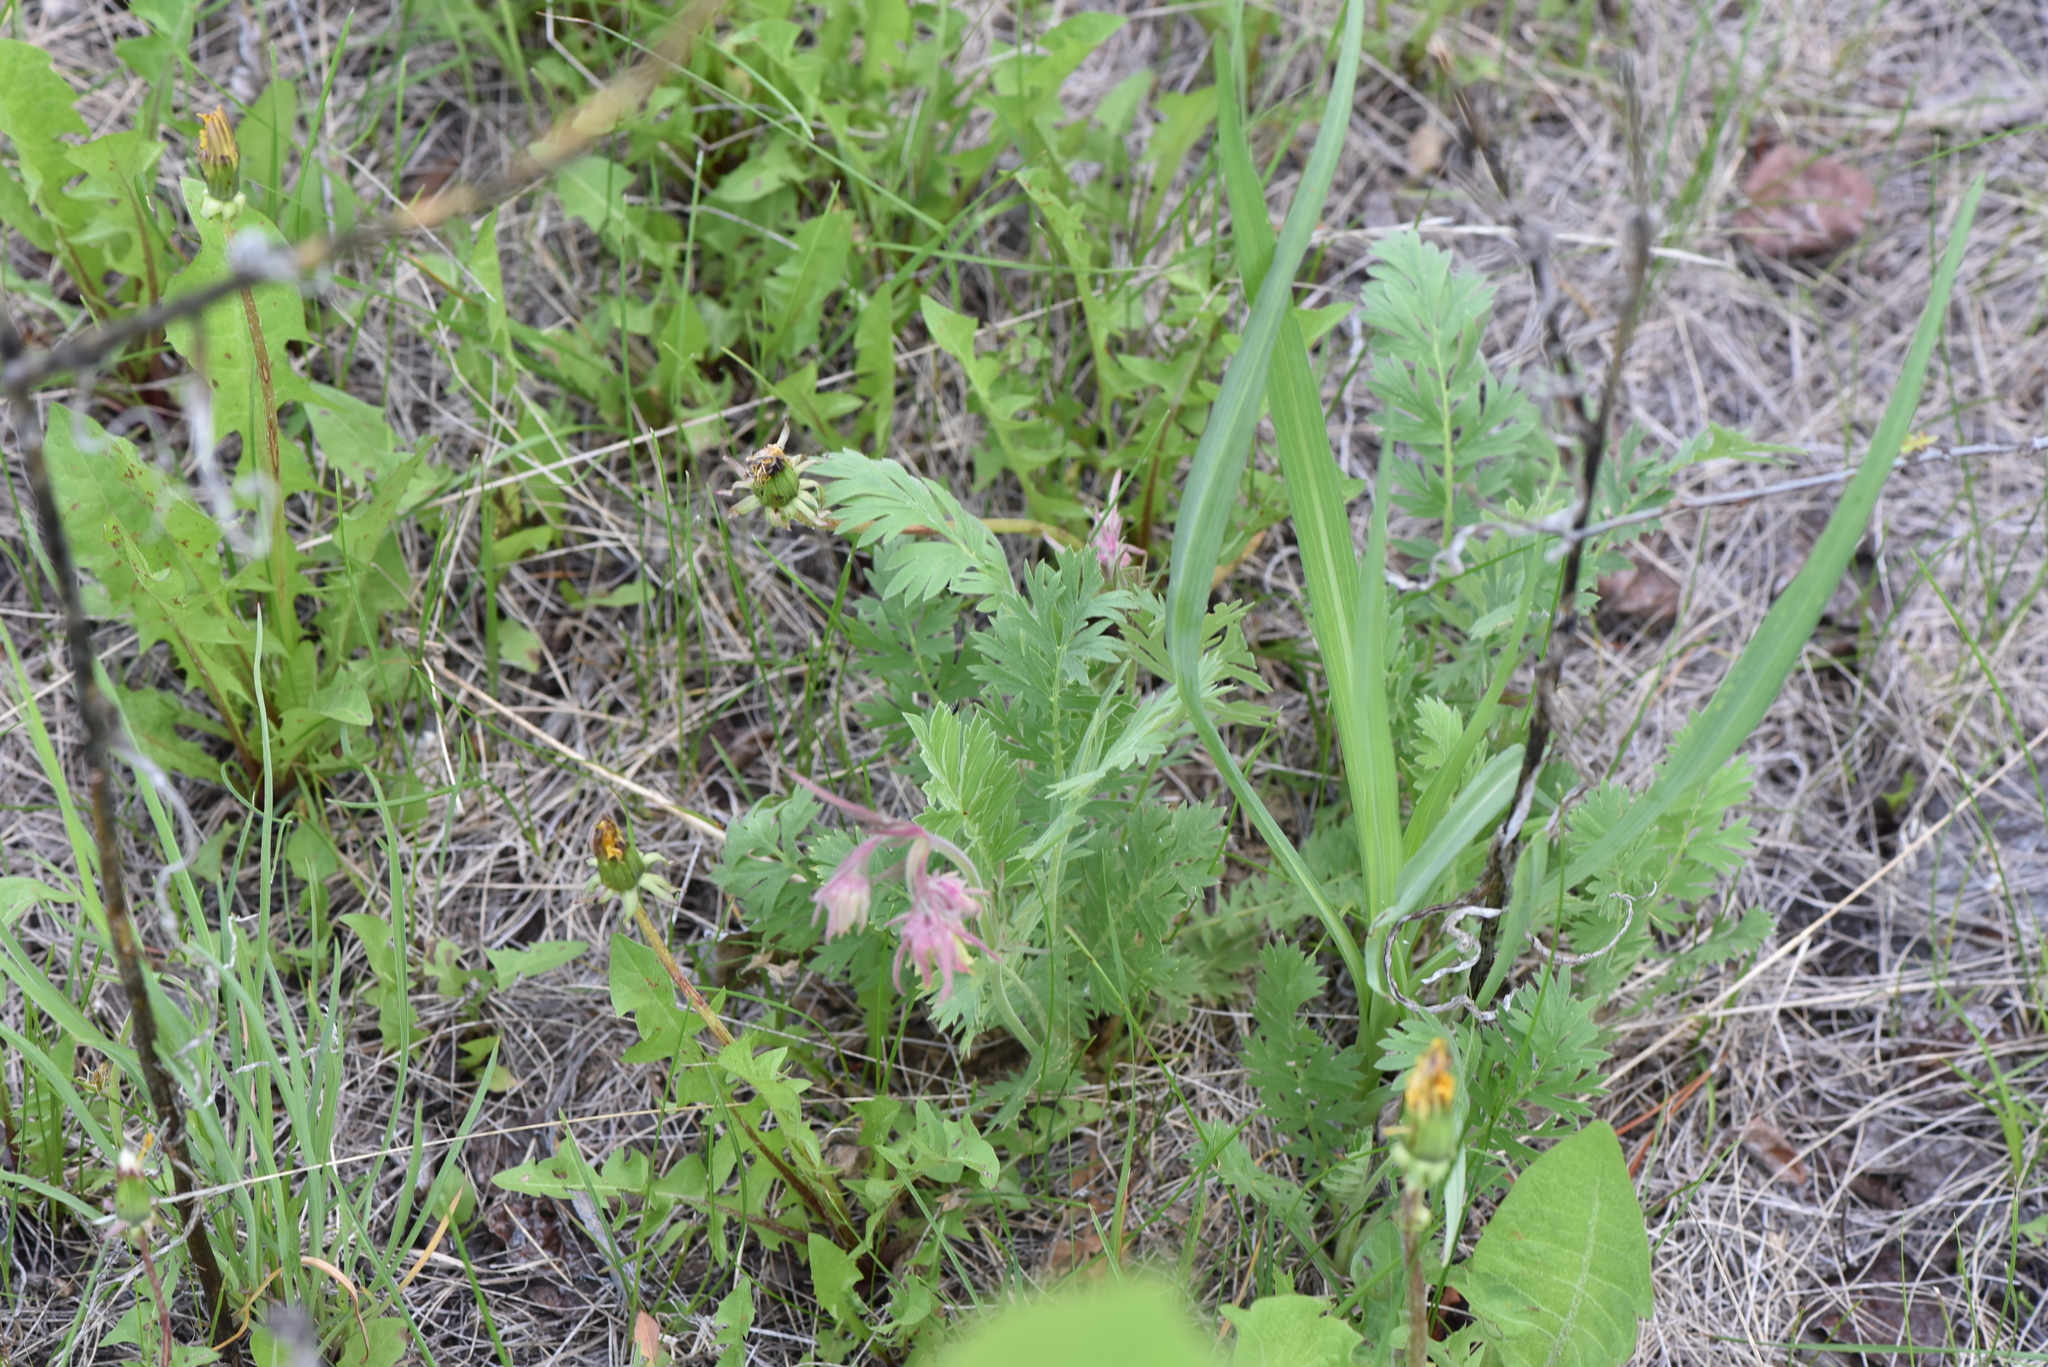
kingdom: Plantae
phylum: Tracheophyta
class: Magnoliopsida
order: Rosales
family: Rosaceae
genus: Geum
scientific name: Geum triflorum
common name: Old man's whiskers
